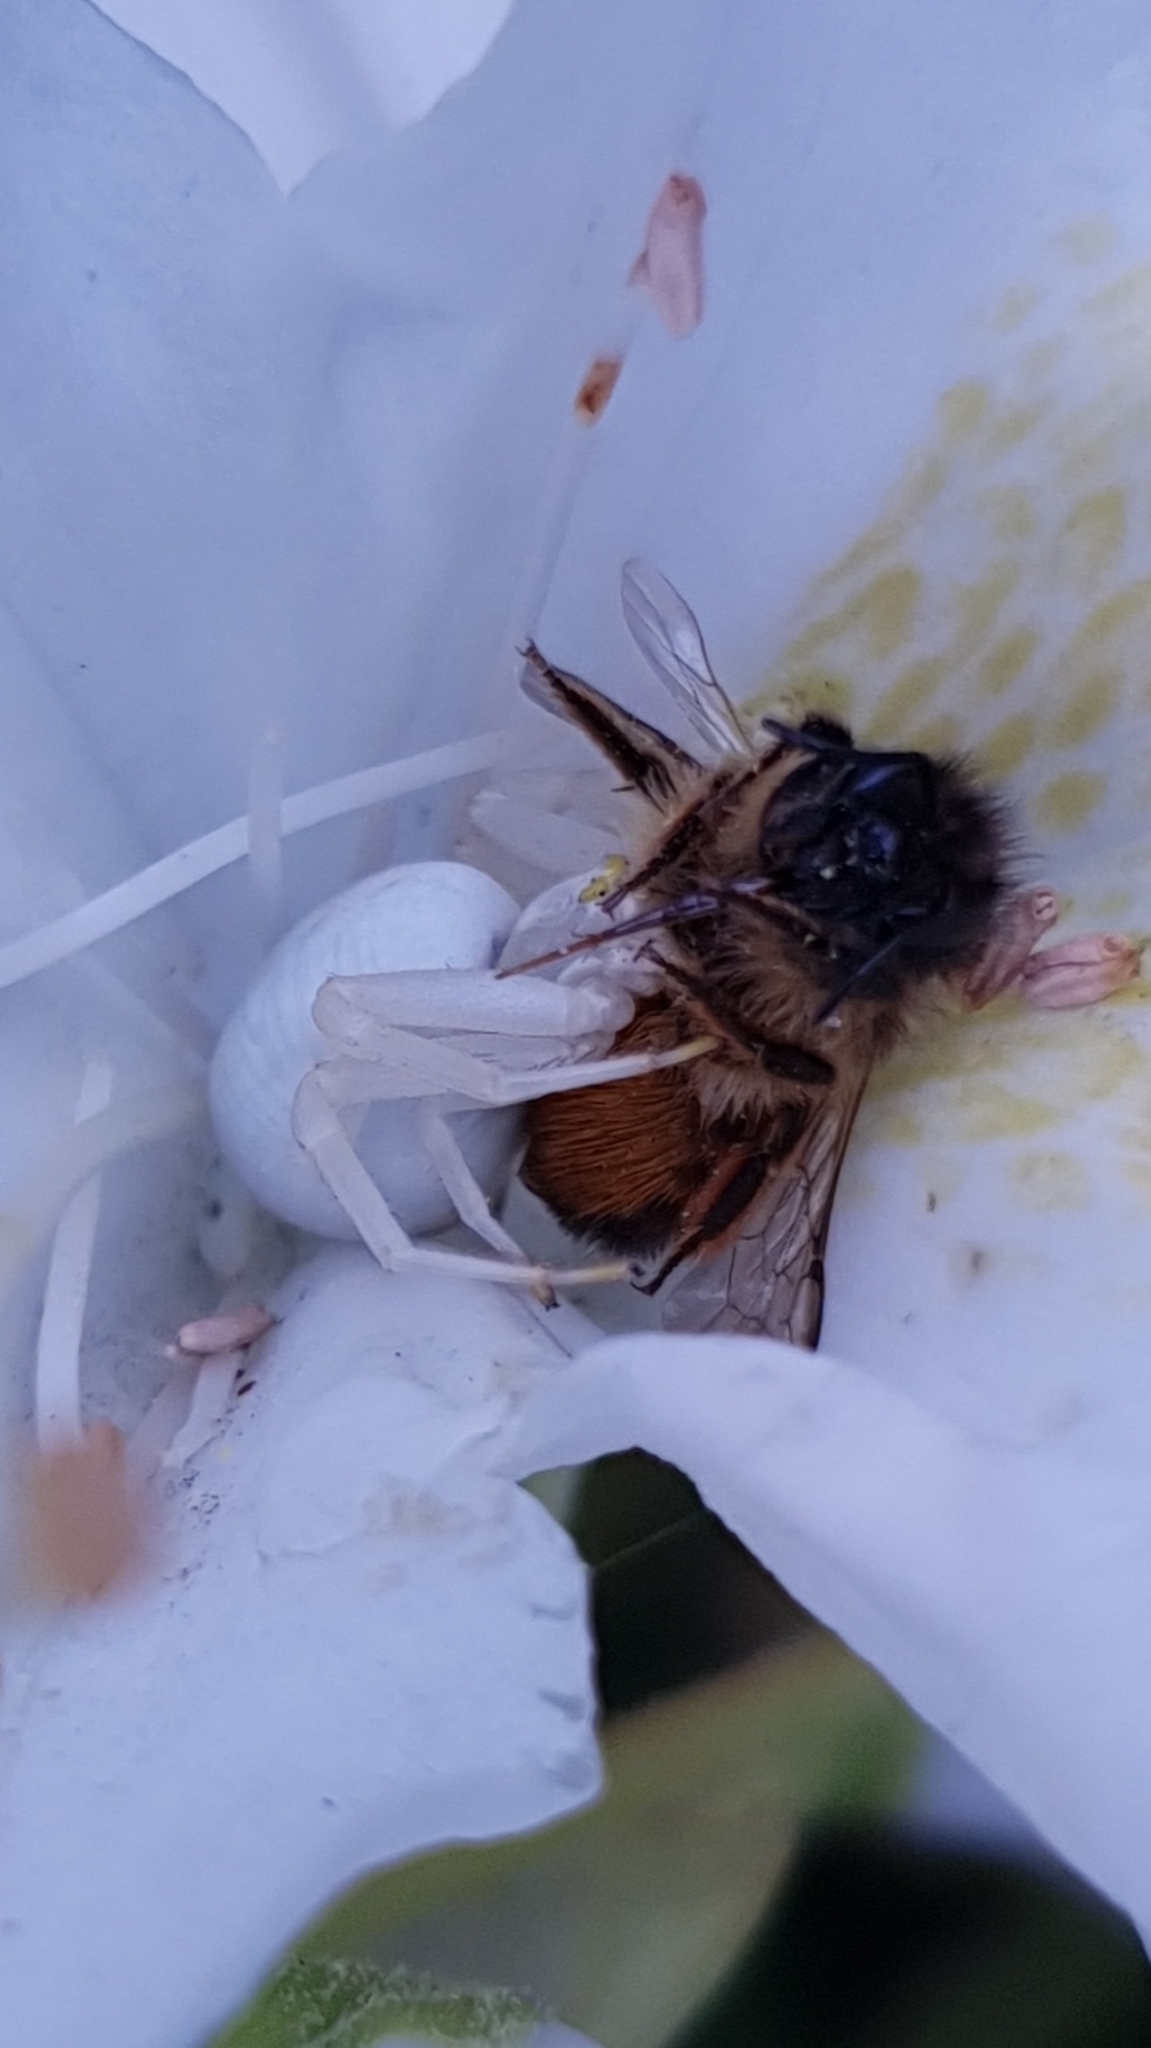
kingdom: Animalia
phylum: Arthropoda
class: Arachnida
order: Araneae
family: Thomisidae
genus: Misumena
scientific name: Misumena vatia
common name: Goldenrod crab spider
